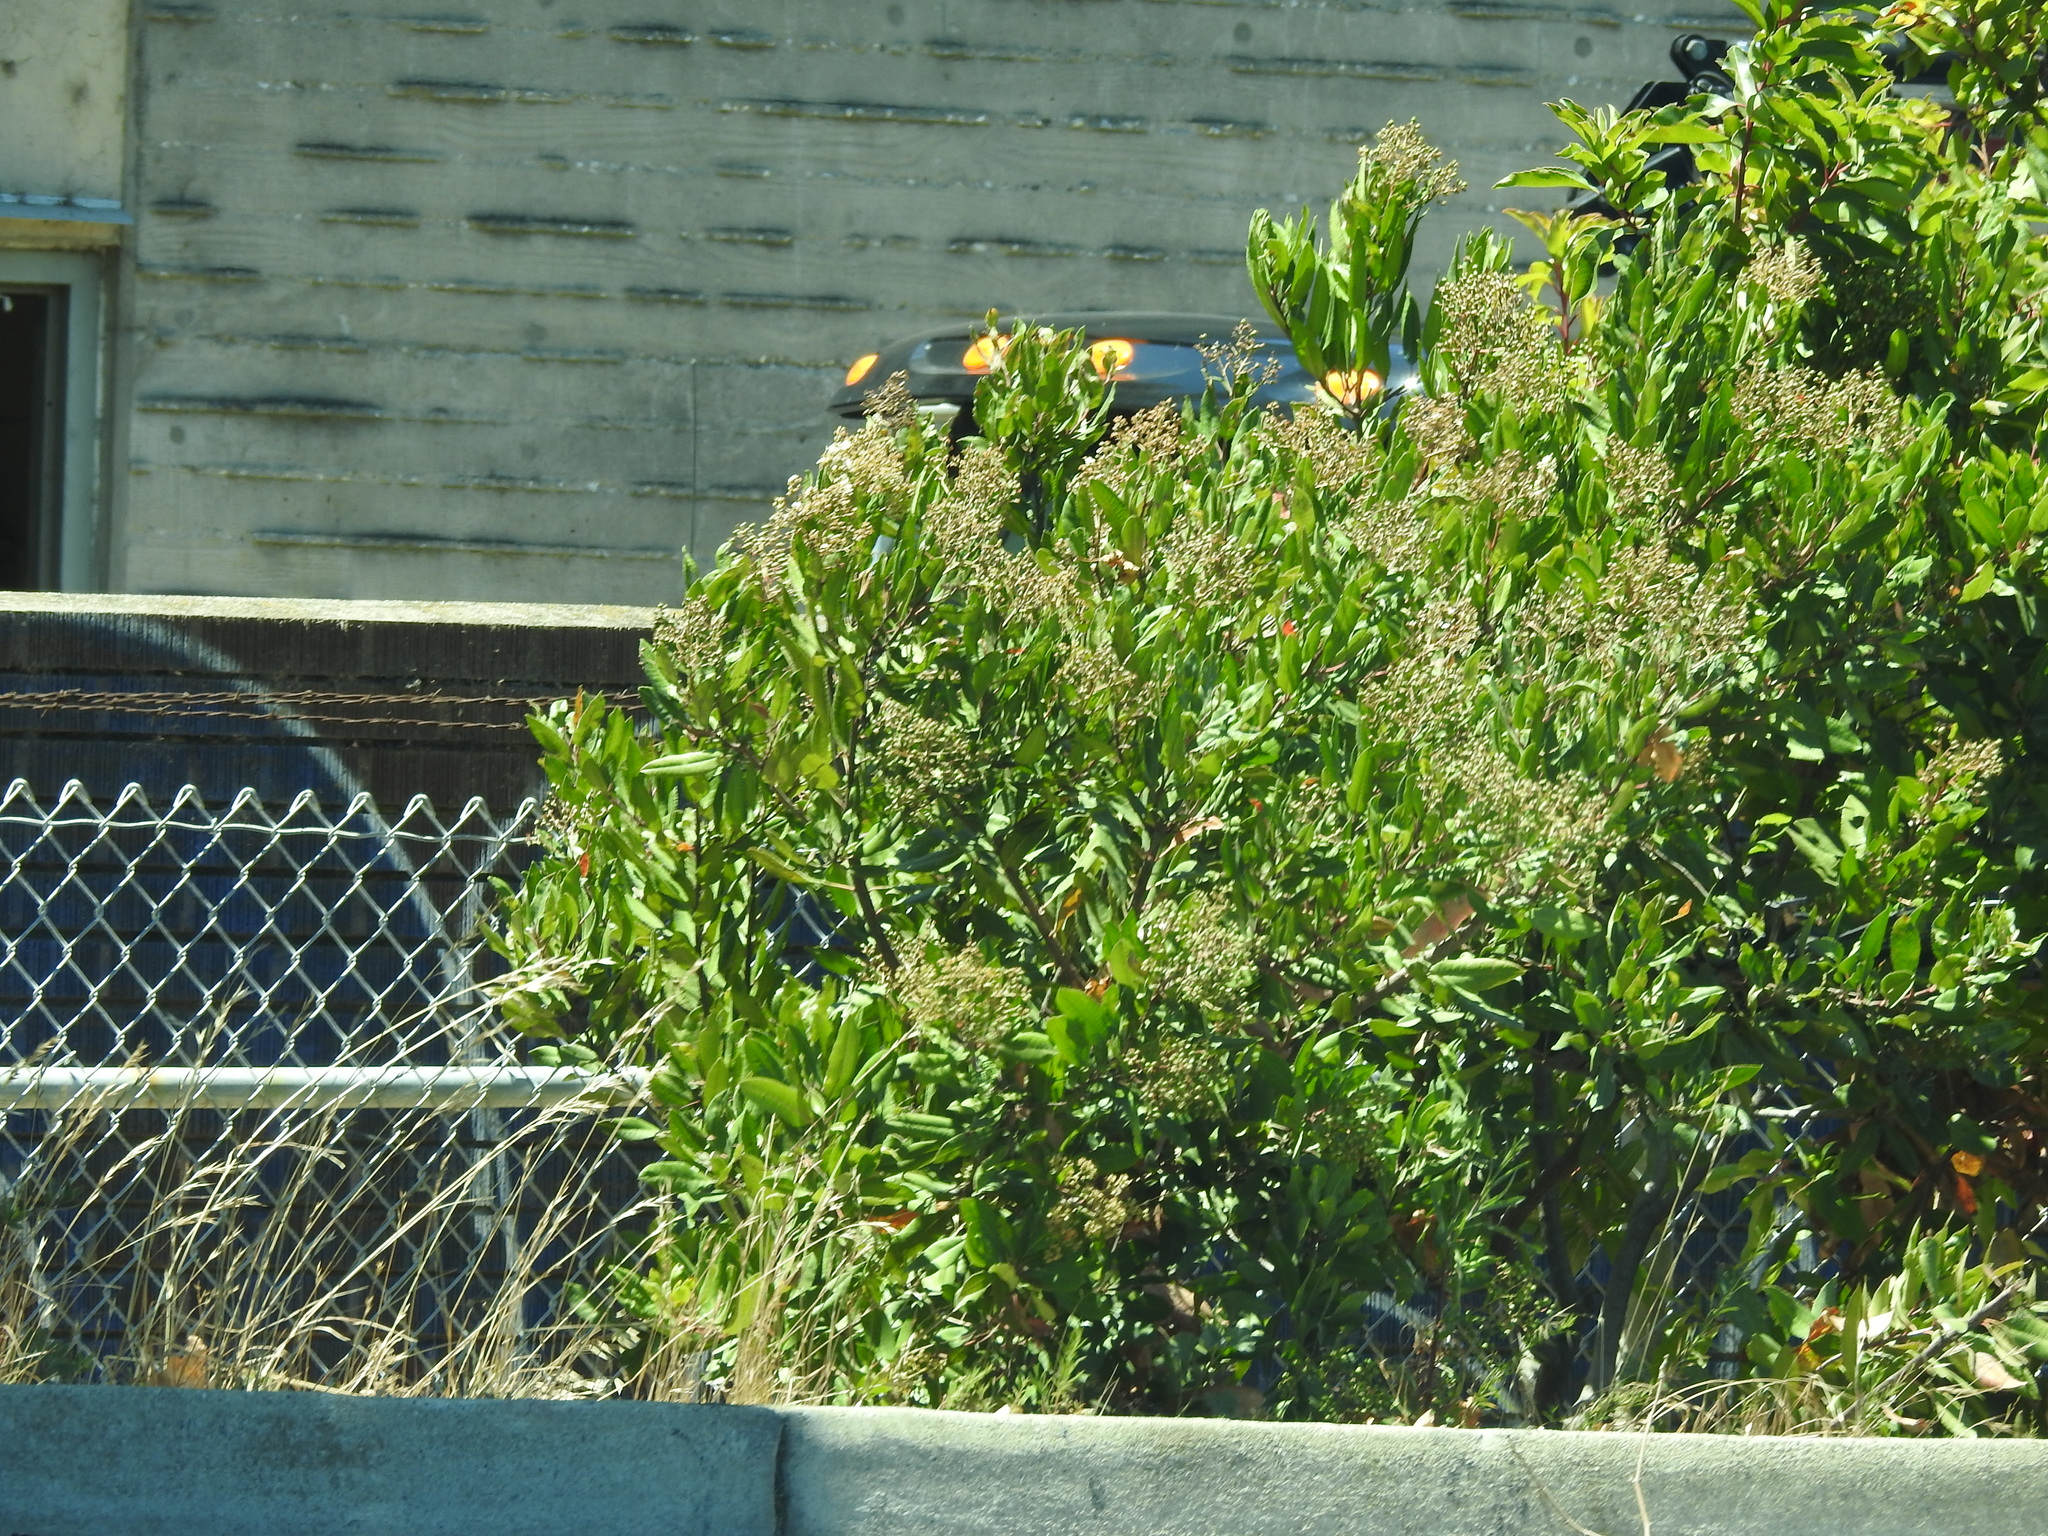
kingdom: Plantae
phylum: Tracheophyta
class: Magnoliopsida
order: Rosales
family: Rosaceae
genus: Heteromeles
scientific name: Heteromeles arbutifolia
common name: California-holly
